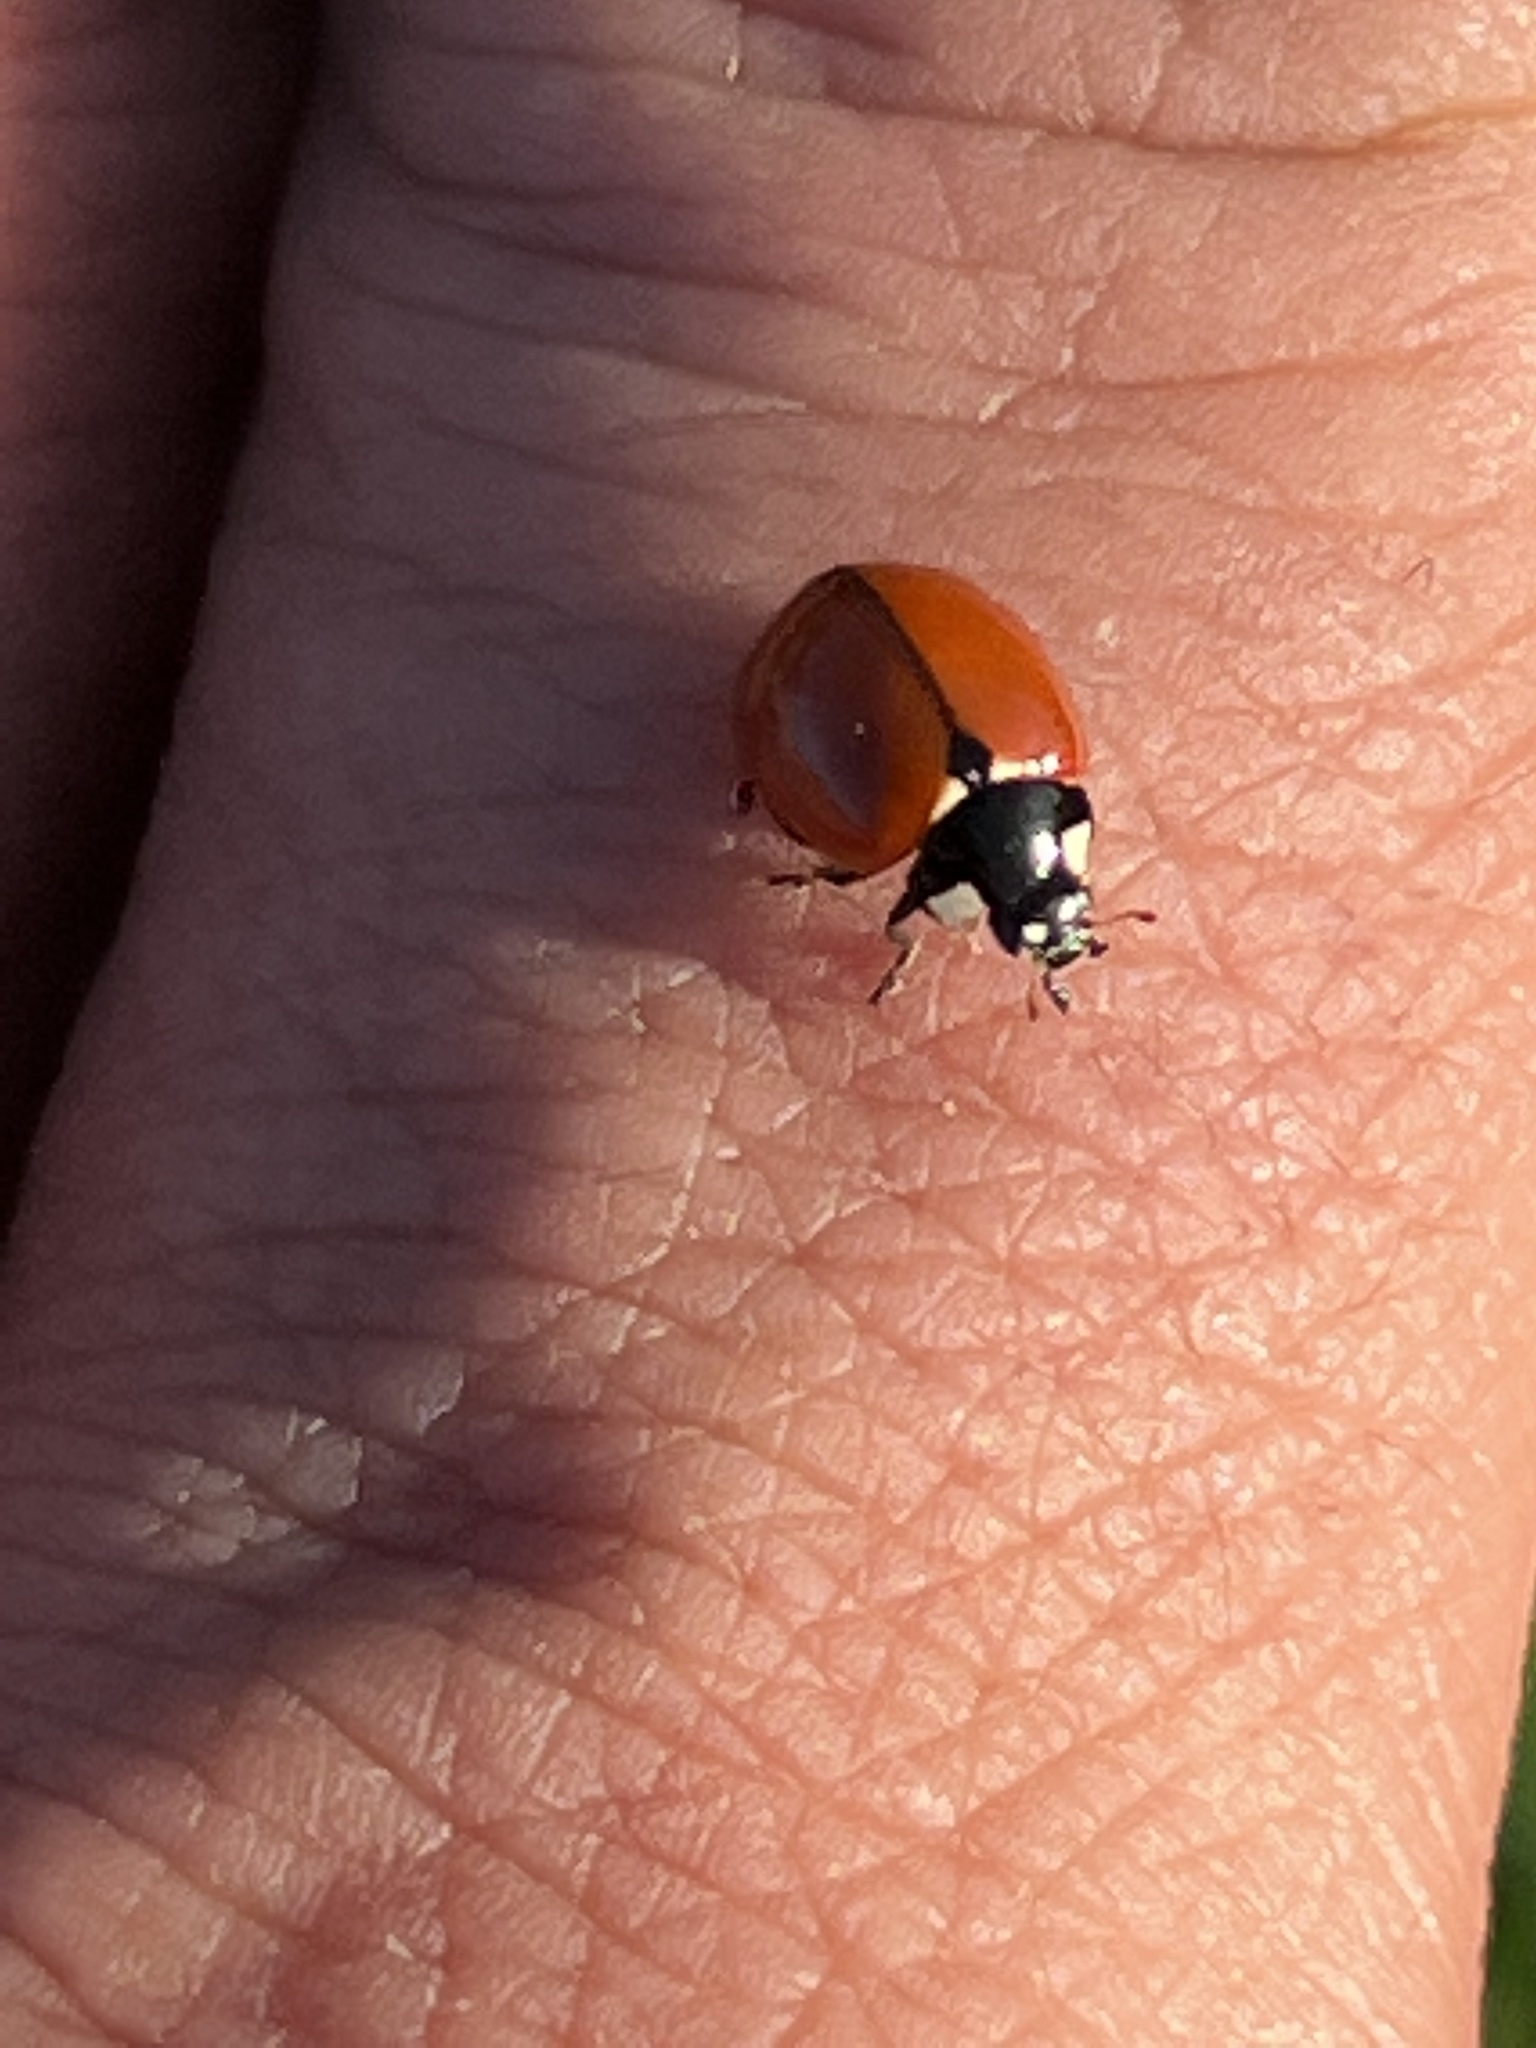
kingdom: Animalia
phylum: Arthropoda
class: Insecta
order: Coleoptera
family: Coccinellidae
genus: Coccinella
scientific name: Coccinella californica
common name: Lady beetle
